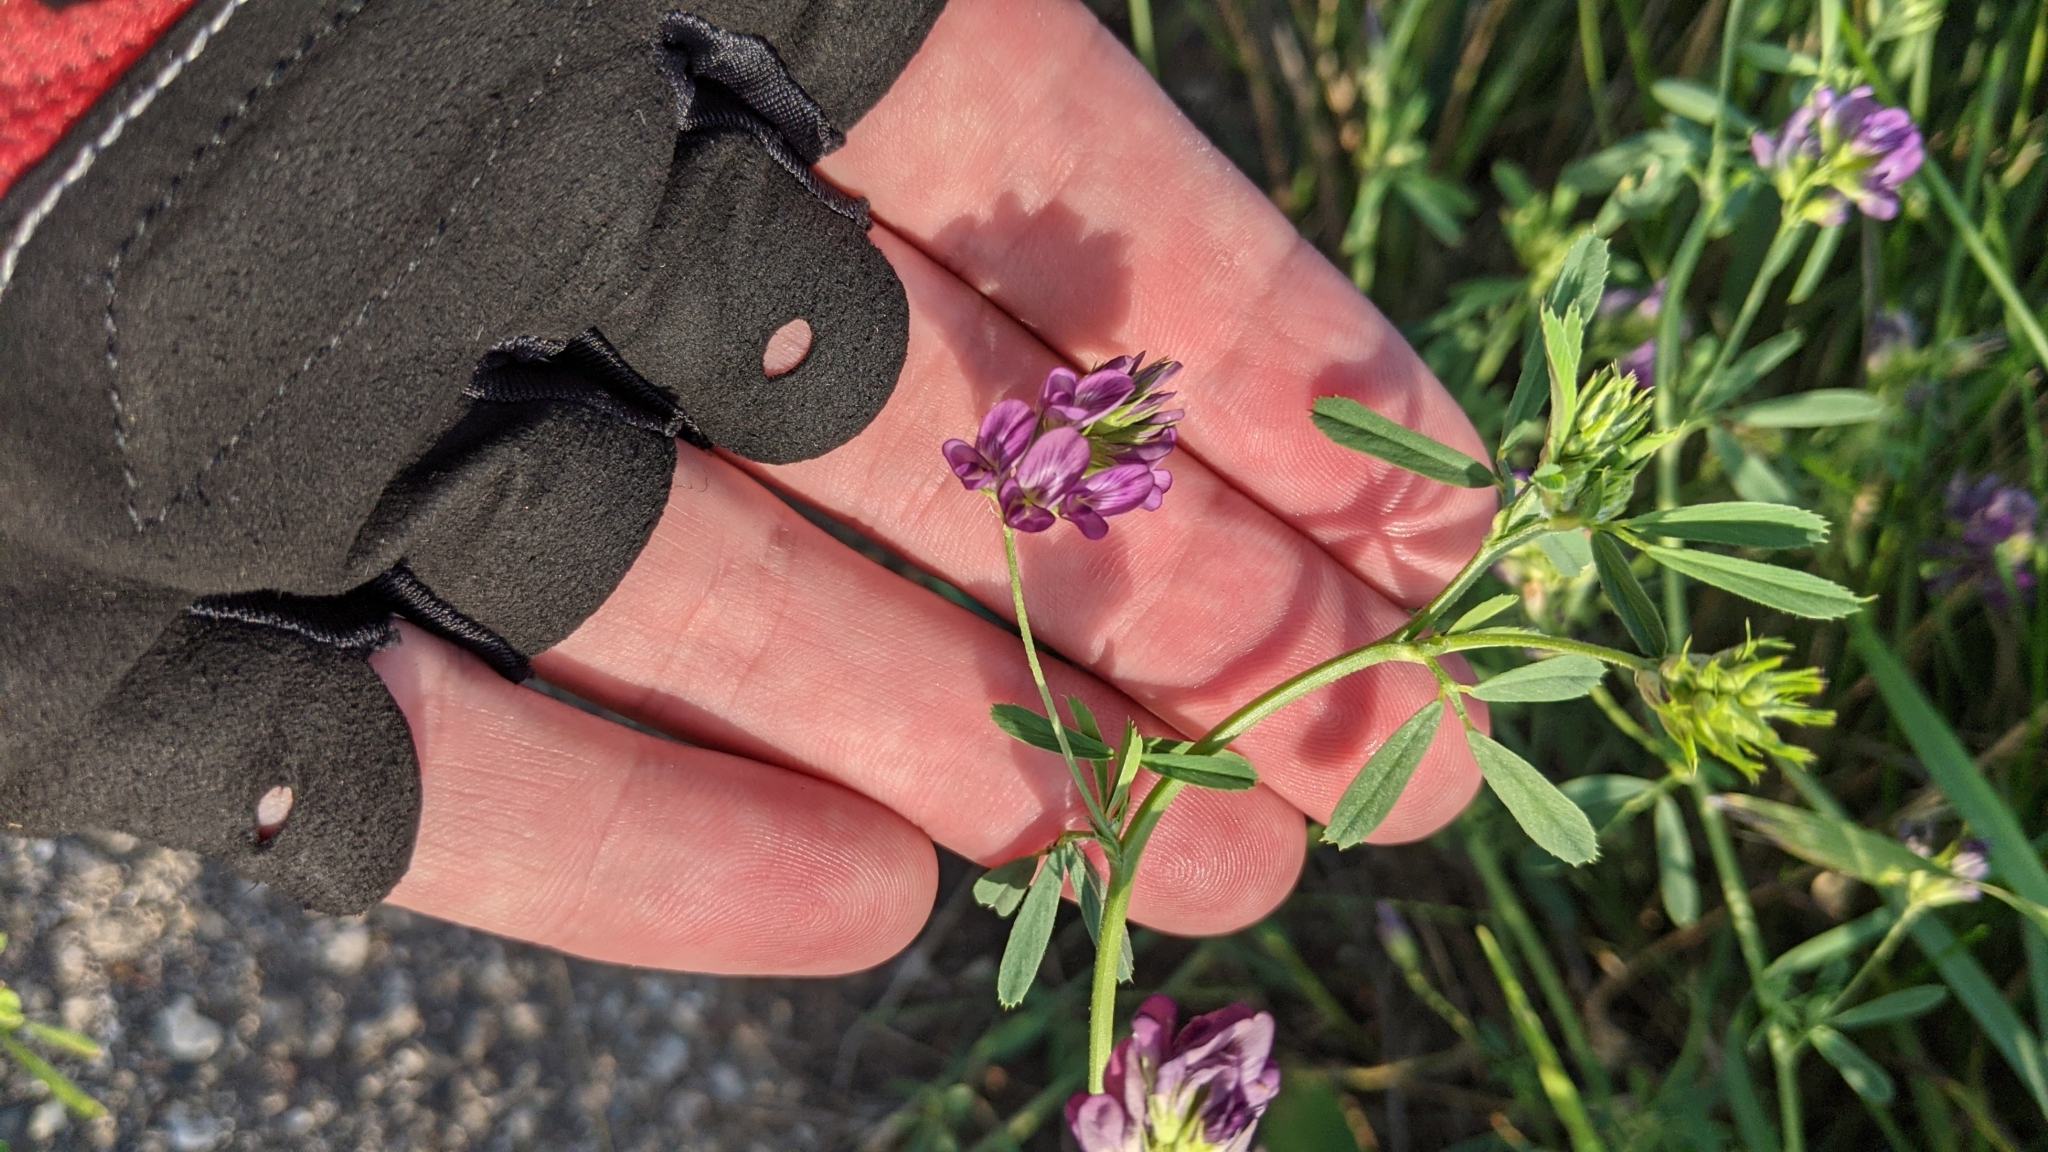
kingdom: Plantae
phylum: Tracheophyta
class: Magnoliopsida
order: Fabales
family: Fabaceae
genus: Medicago
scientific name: Medicago sativa
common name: Alfalfa
